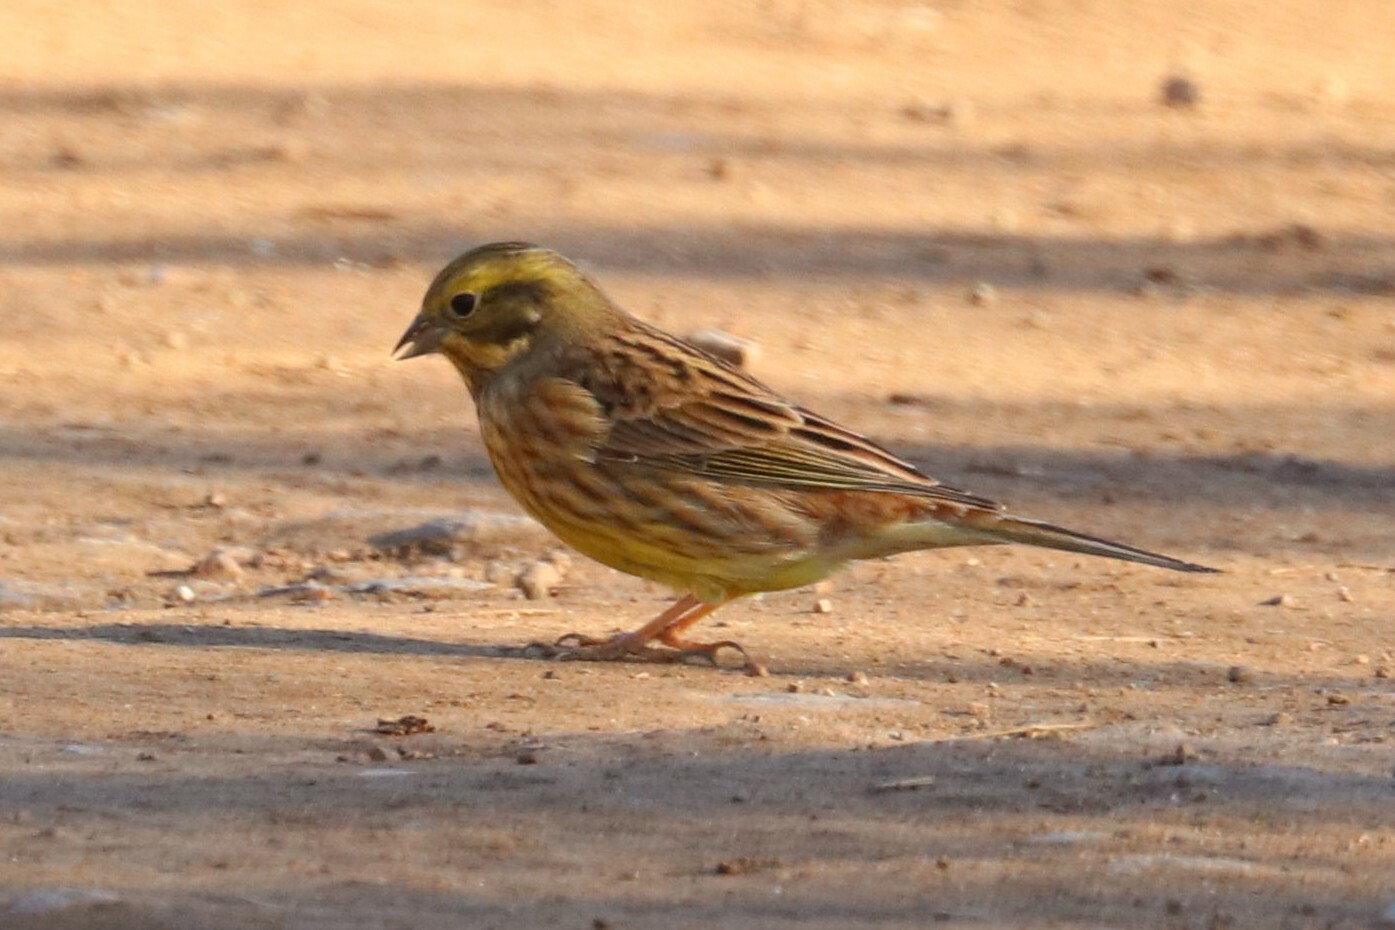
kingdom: Animalia
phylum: Chordata
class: Aves
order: Passeriformes
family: Emberizidae
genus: Emberiza
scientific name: Emberiza citrinella
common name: Yellowhammer
